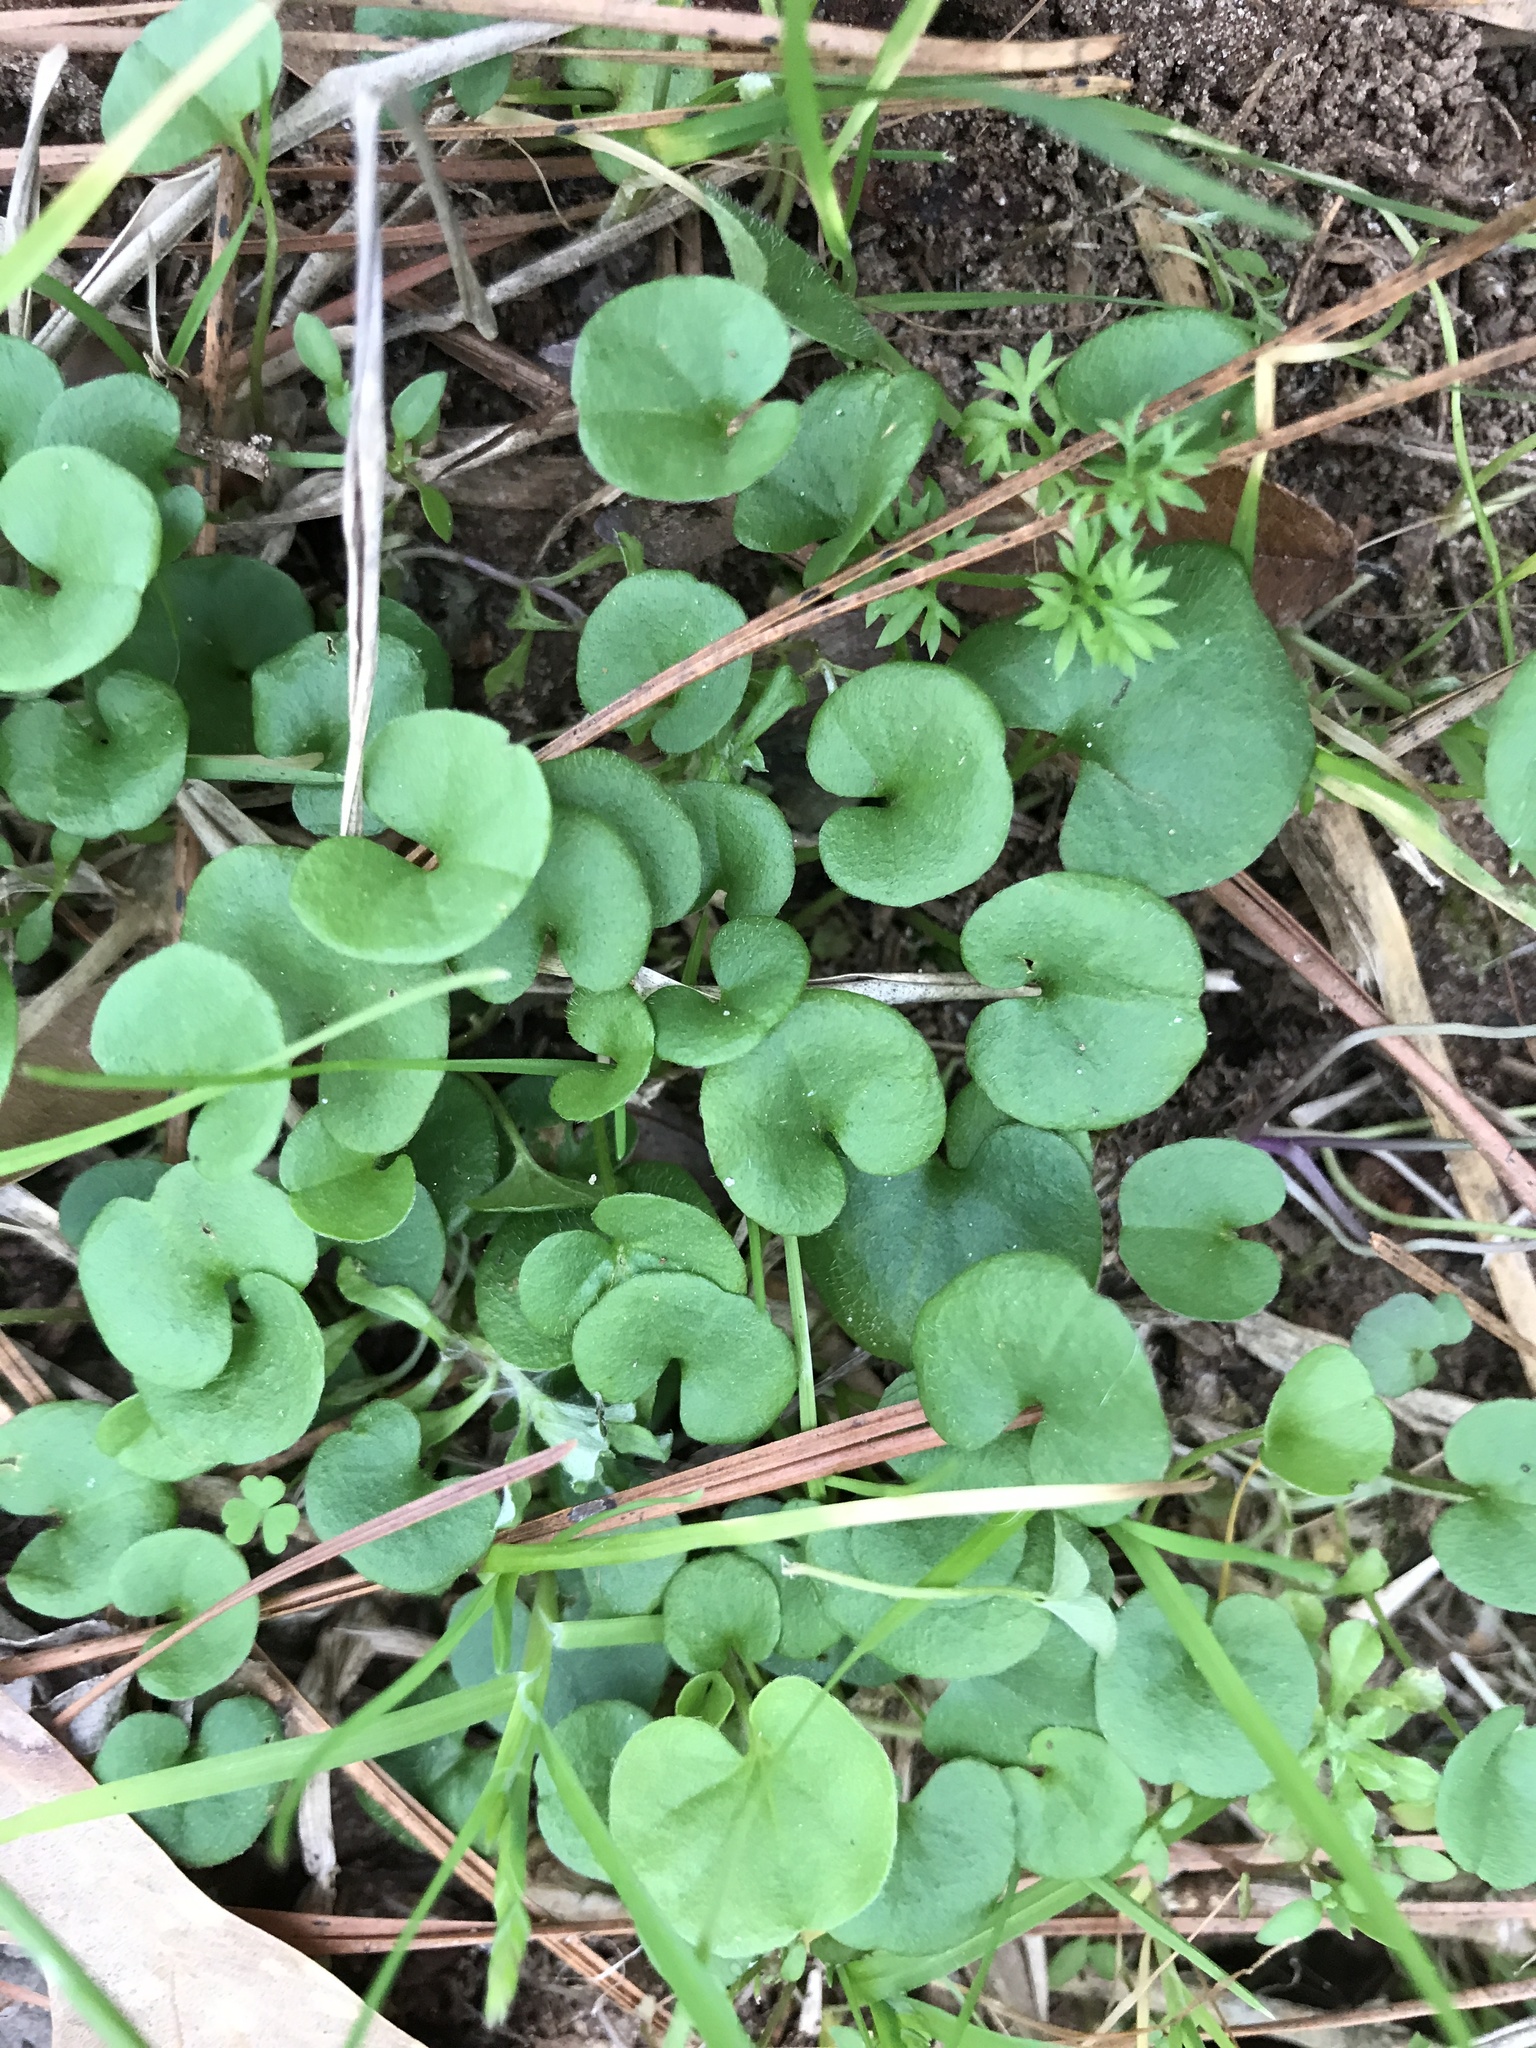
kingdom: Plantae
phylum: Tracheophyta
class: Magnoliopsida
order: Solanales
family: Convolvulaceae
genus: Dichondra
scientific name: Dichondra carolinensis
